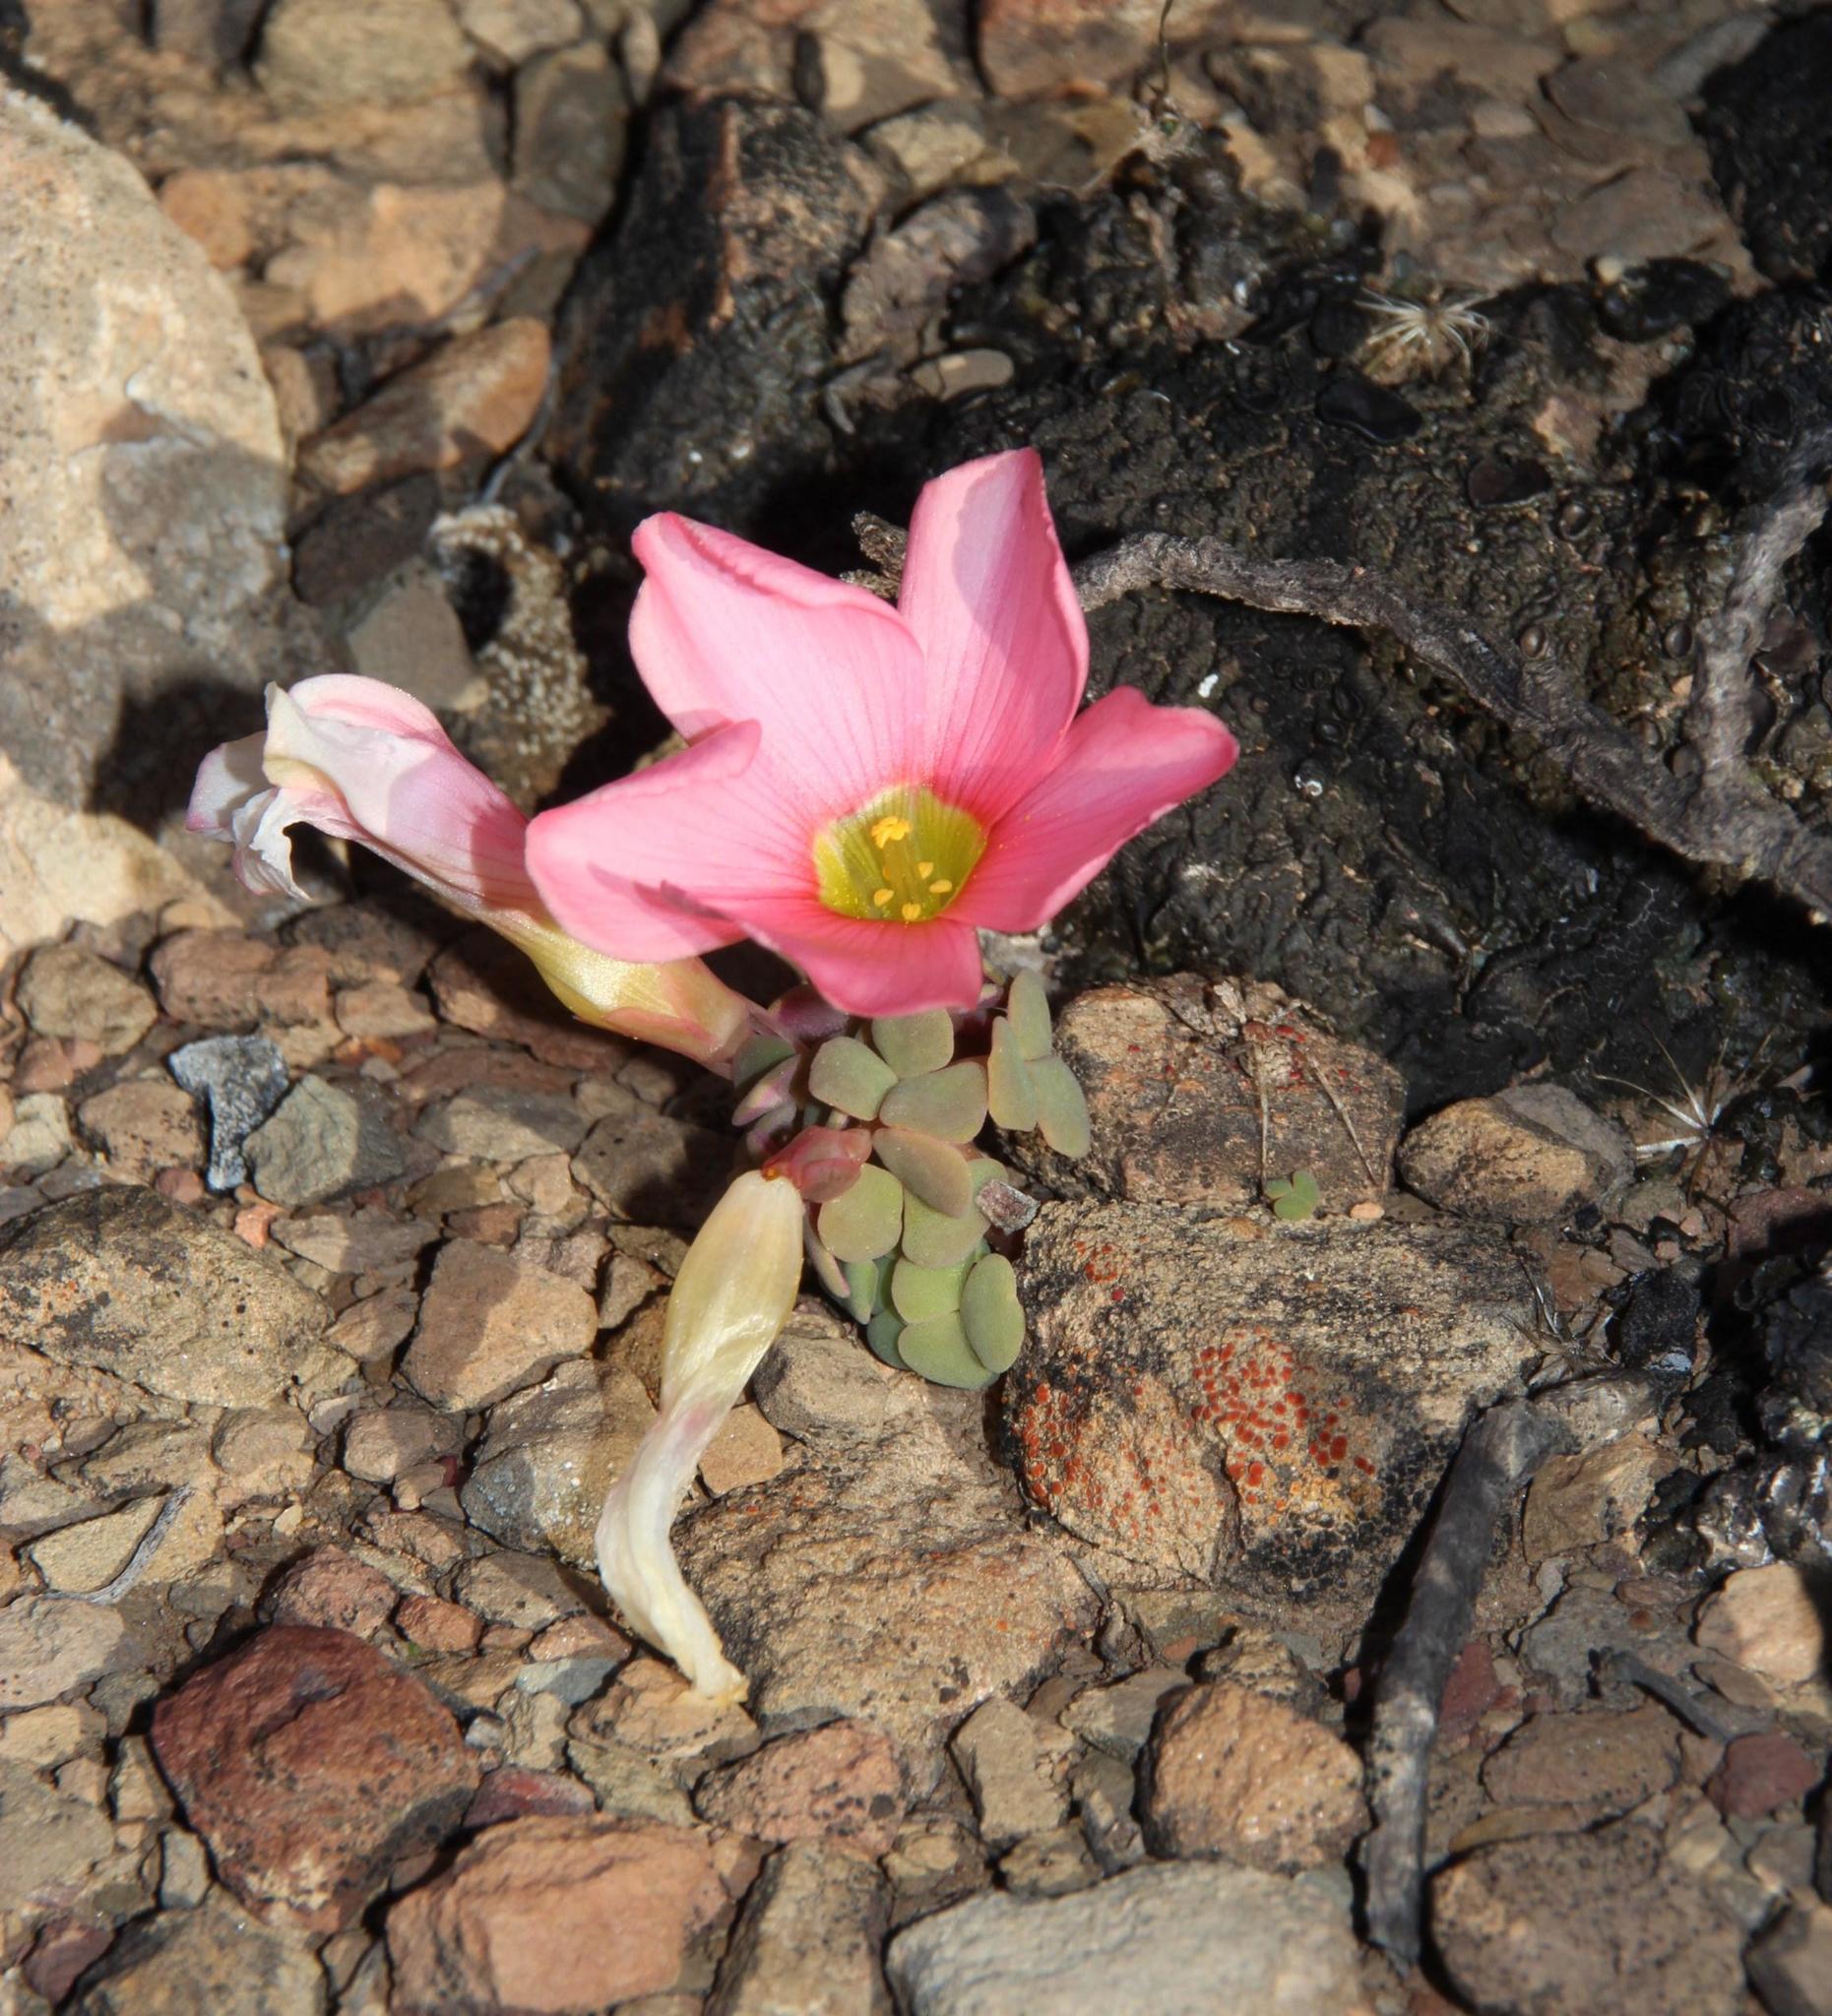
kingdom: Plantae
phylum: Tracheophyta
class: Magnoliopsida
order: Oxalidales
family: Oxalidaceae
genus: Oxalis
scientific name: Oxalis convexula
